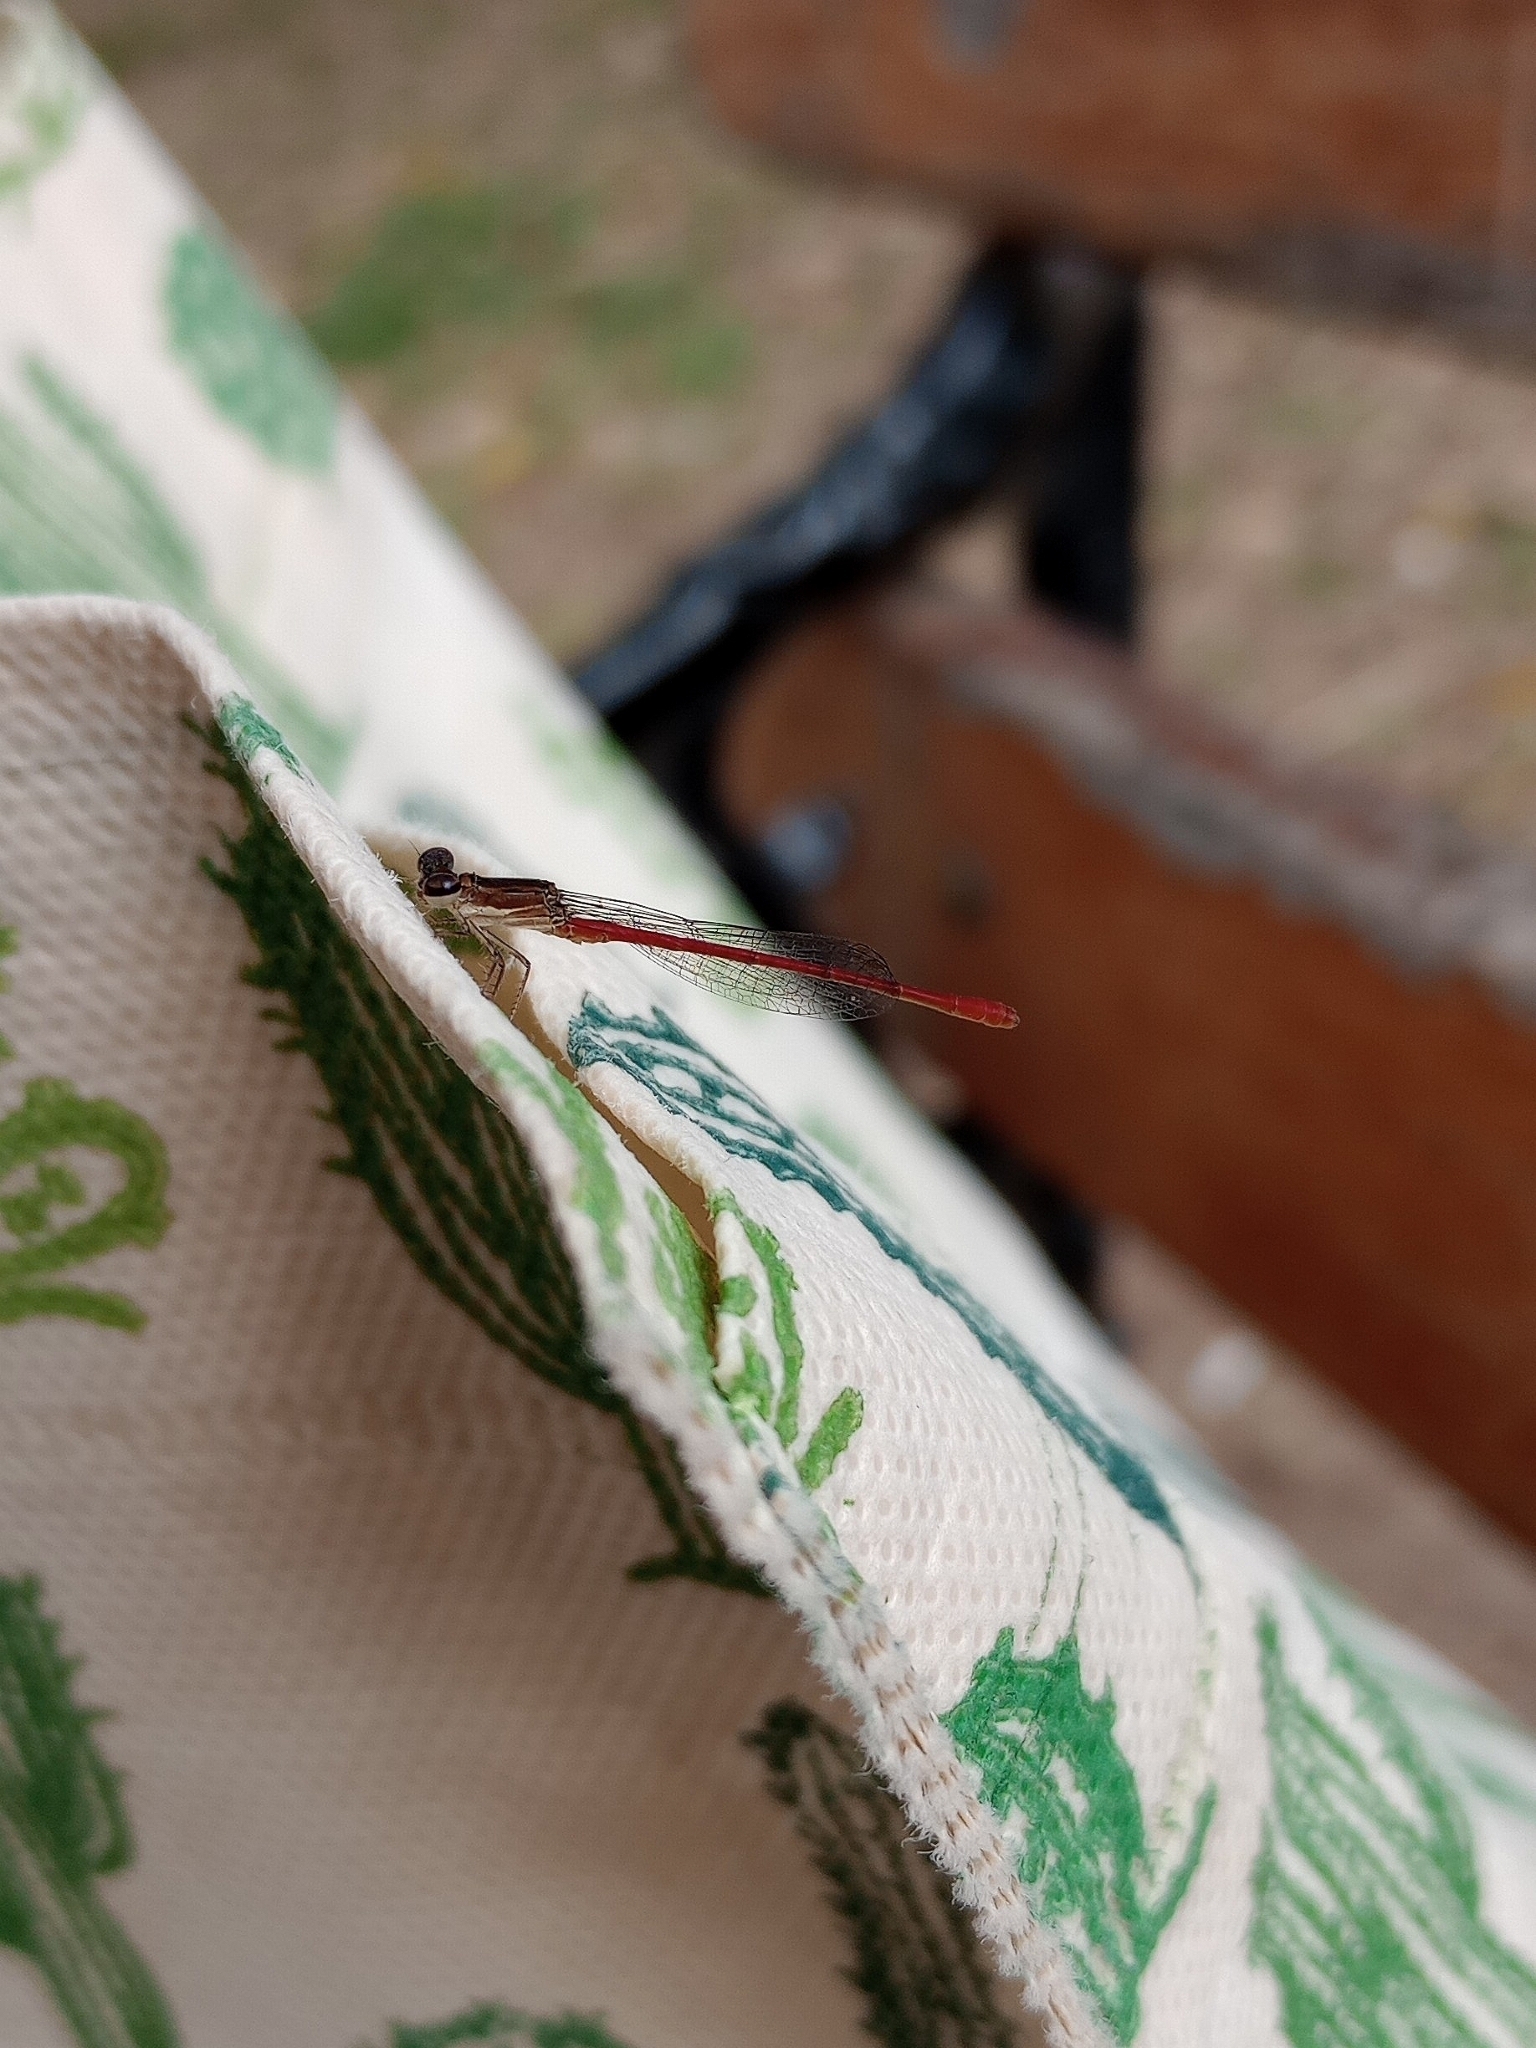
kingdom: Animalia
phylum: Arthropoda
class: Insecta
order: Odonata
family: Coenagrionidae
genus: Telebasis
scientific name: Telebasis willinki
